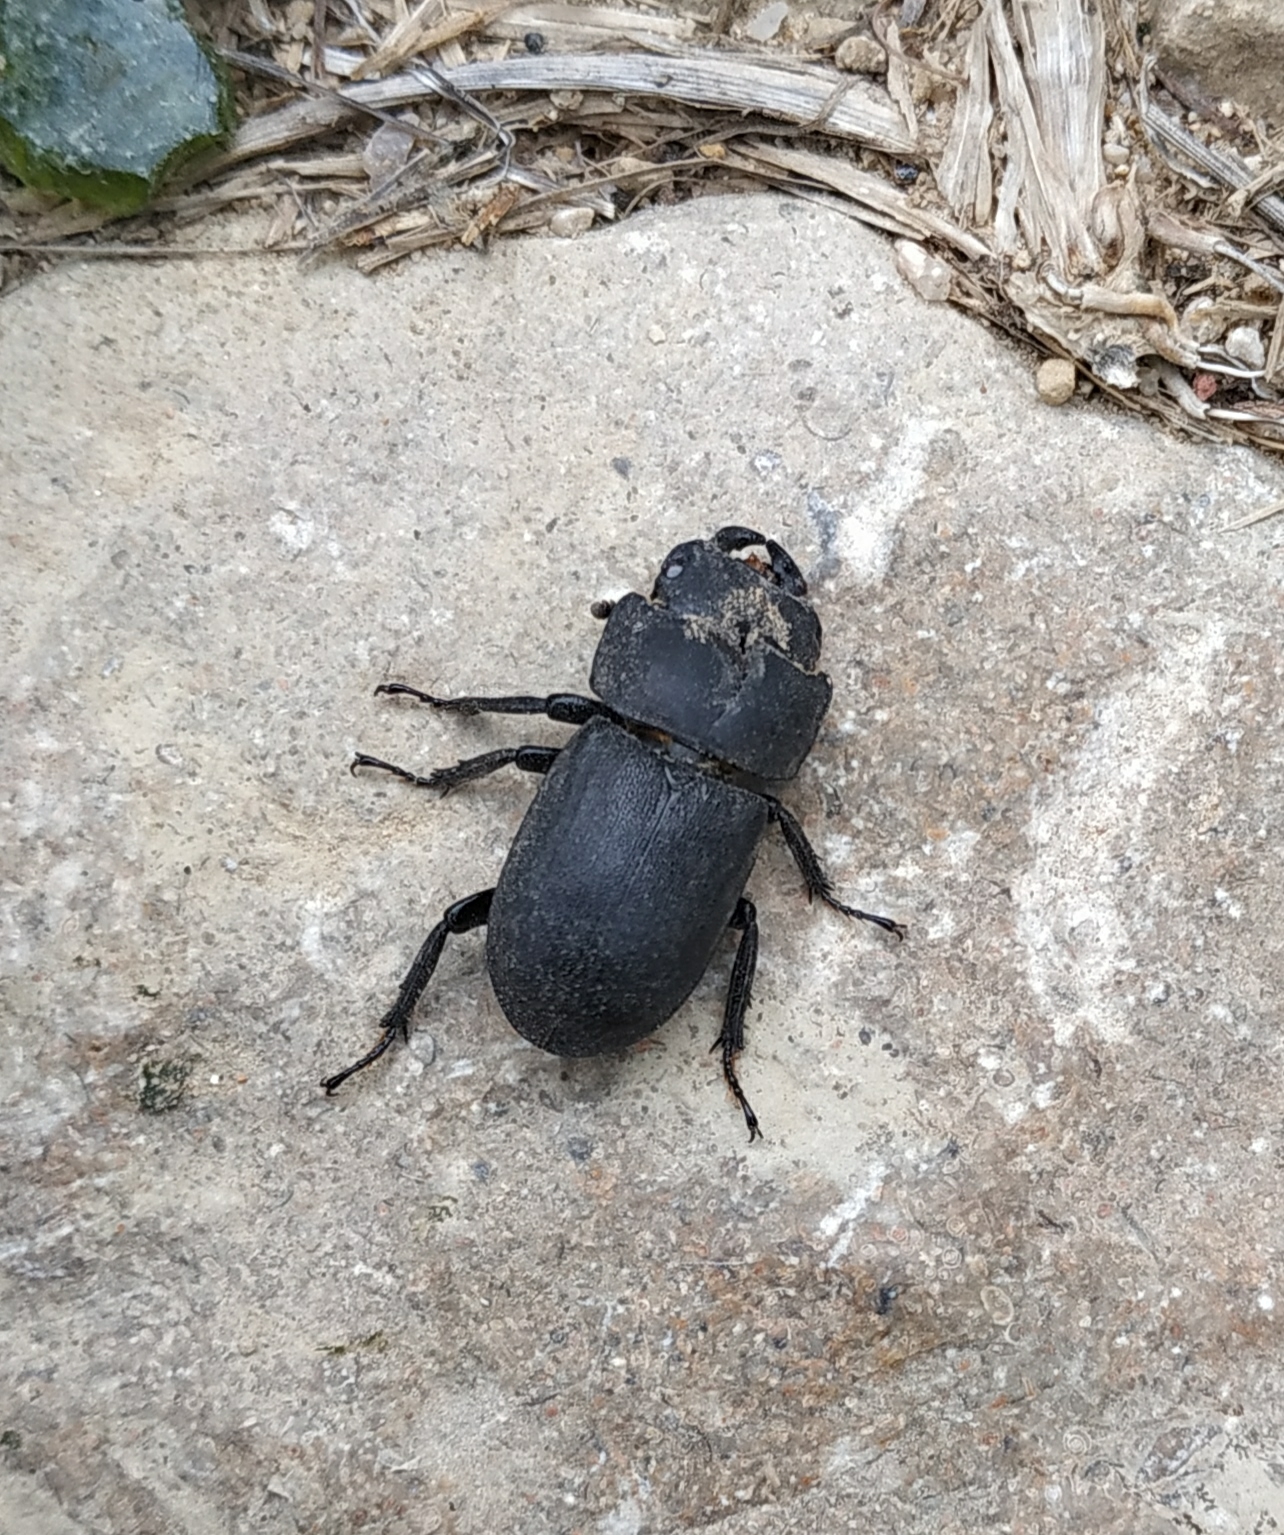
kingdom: Animalia
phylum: Arthropoda
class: Insecta
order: Coleoptera
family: Lucanidae
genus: Dorcus
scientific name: Dorcus parallelipipedus
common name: Lesser stag beetle
